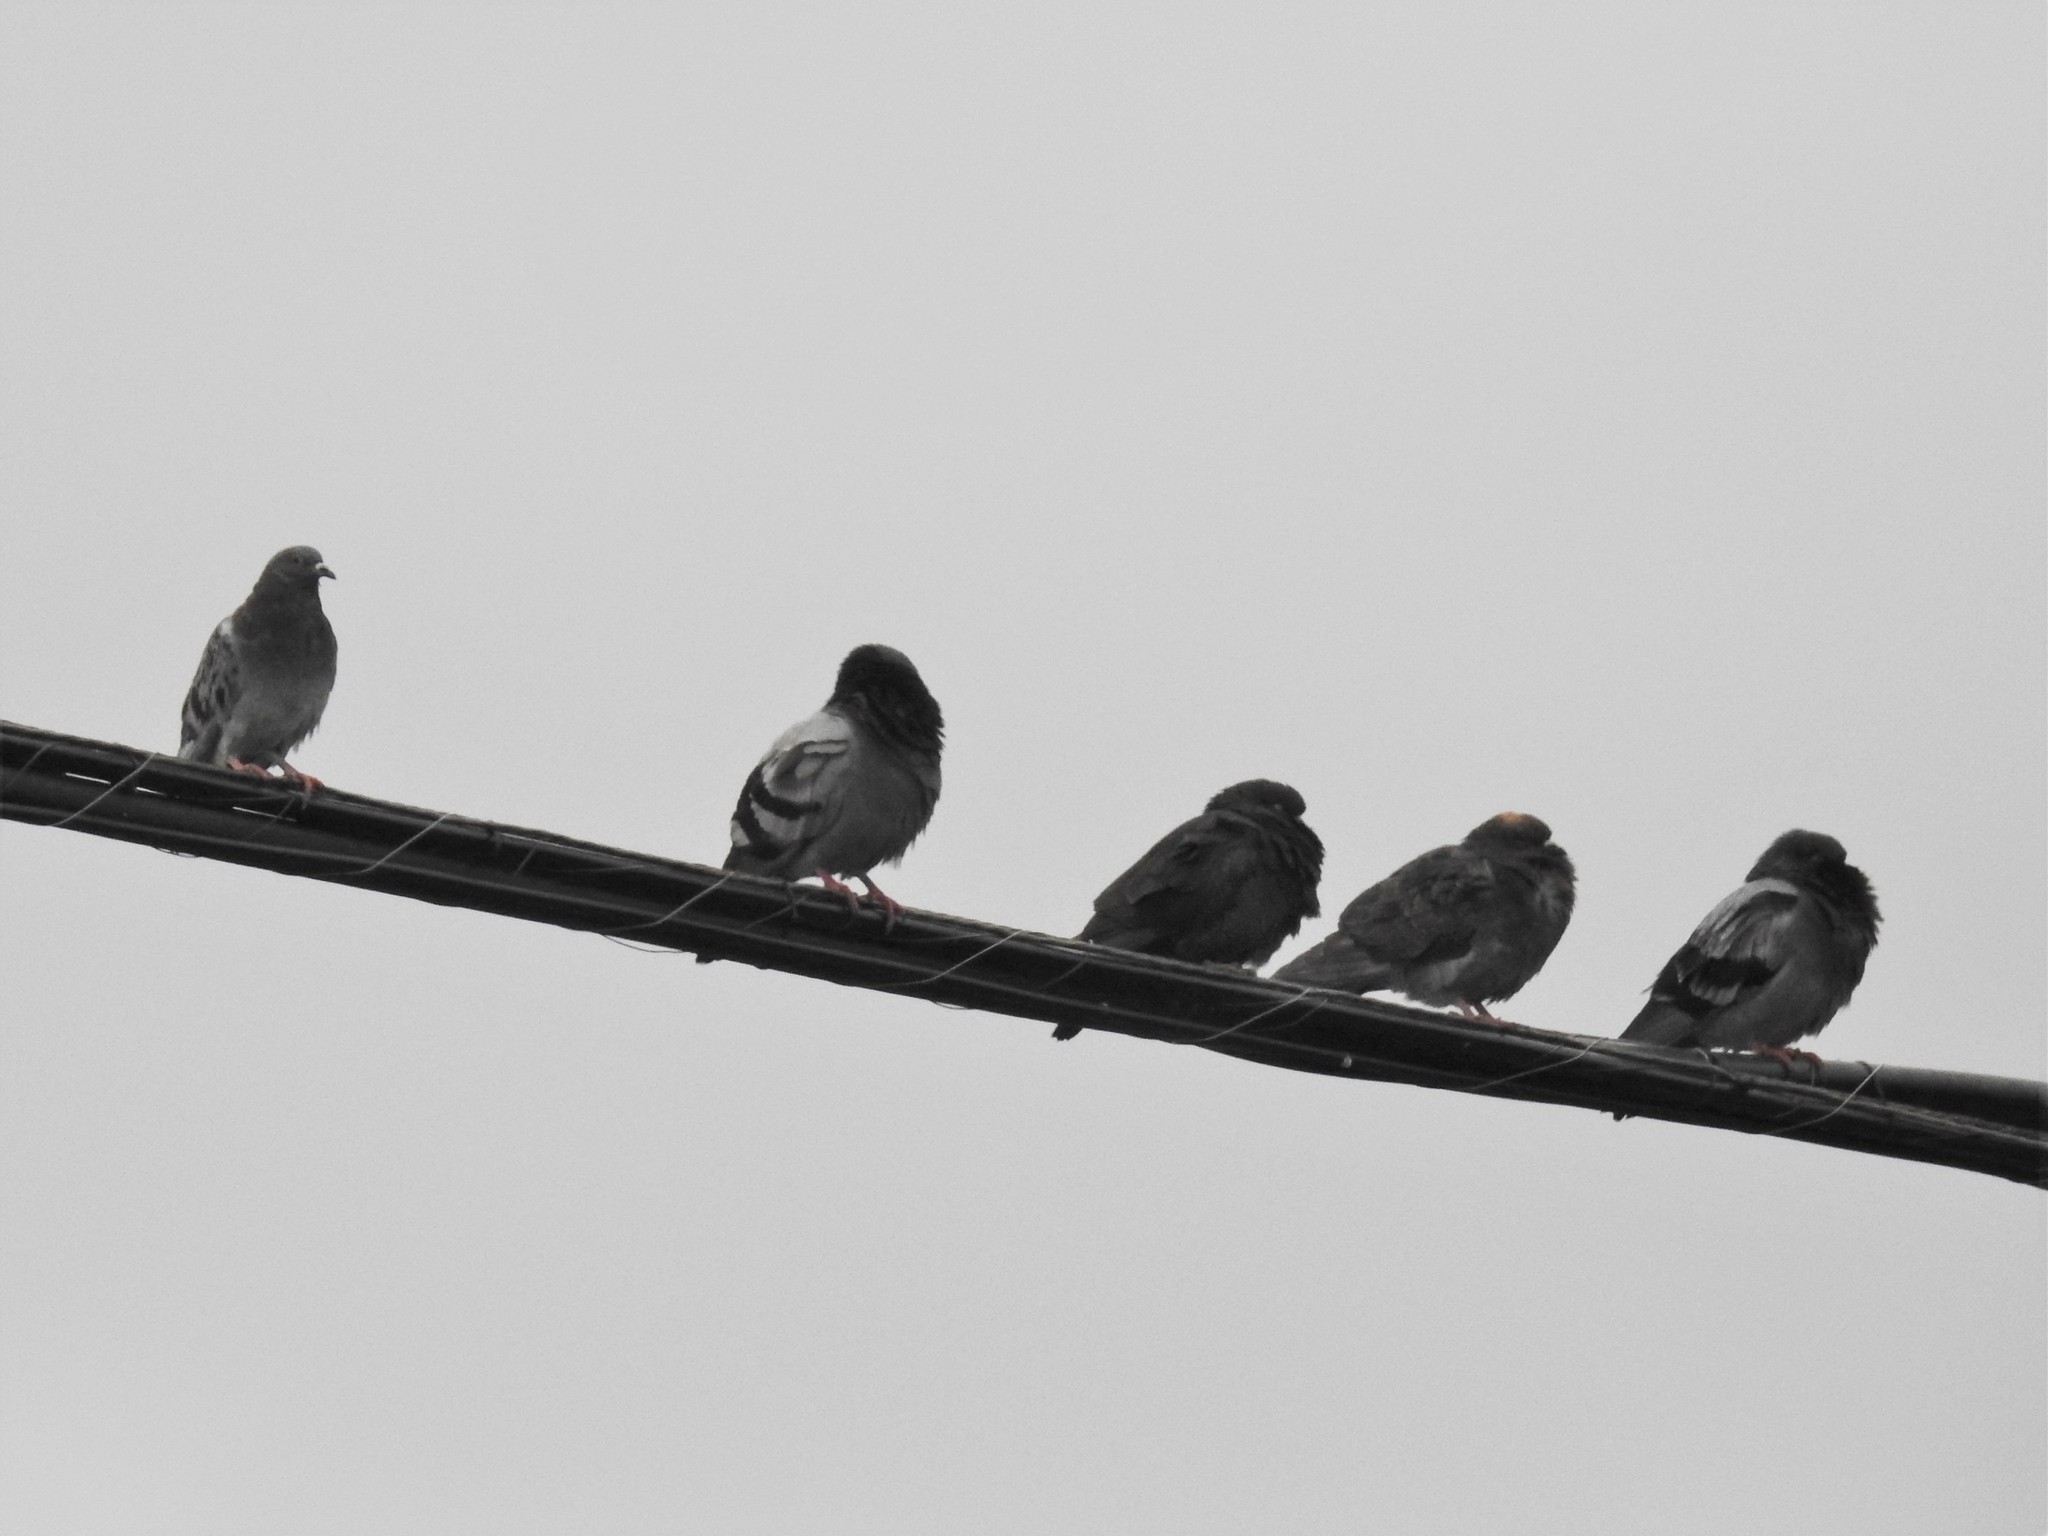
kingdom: Animalia
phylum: Chordata
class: Aves
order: Columbiformes
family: Columbidae
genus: Columba
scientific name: Columba livia
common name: Rock pigeon
